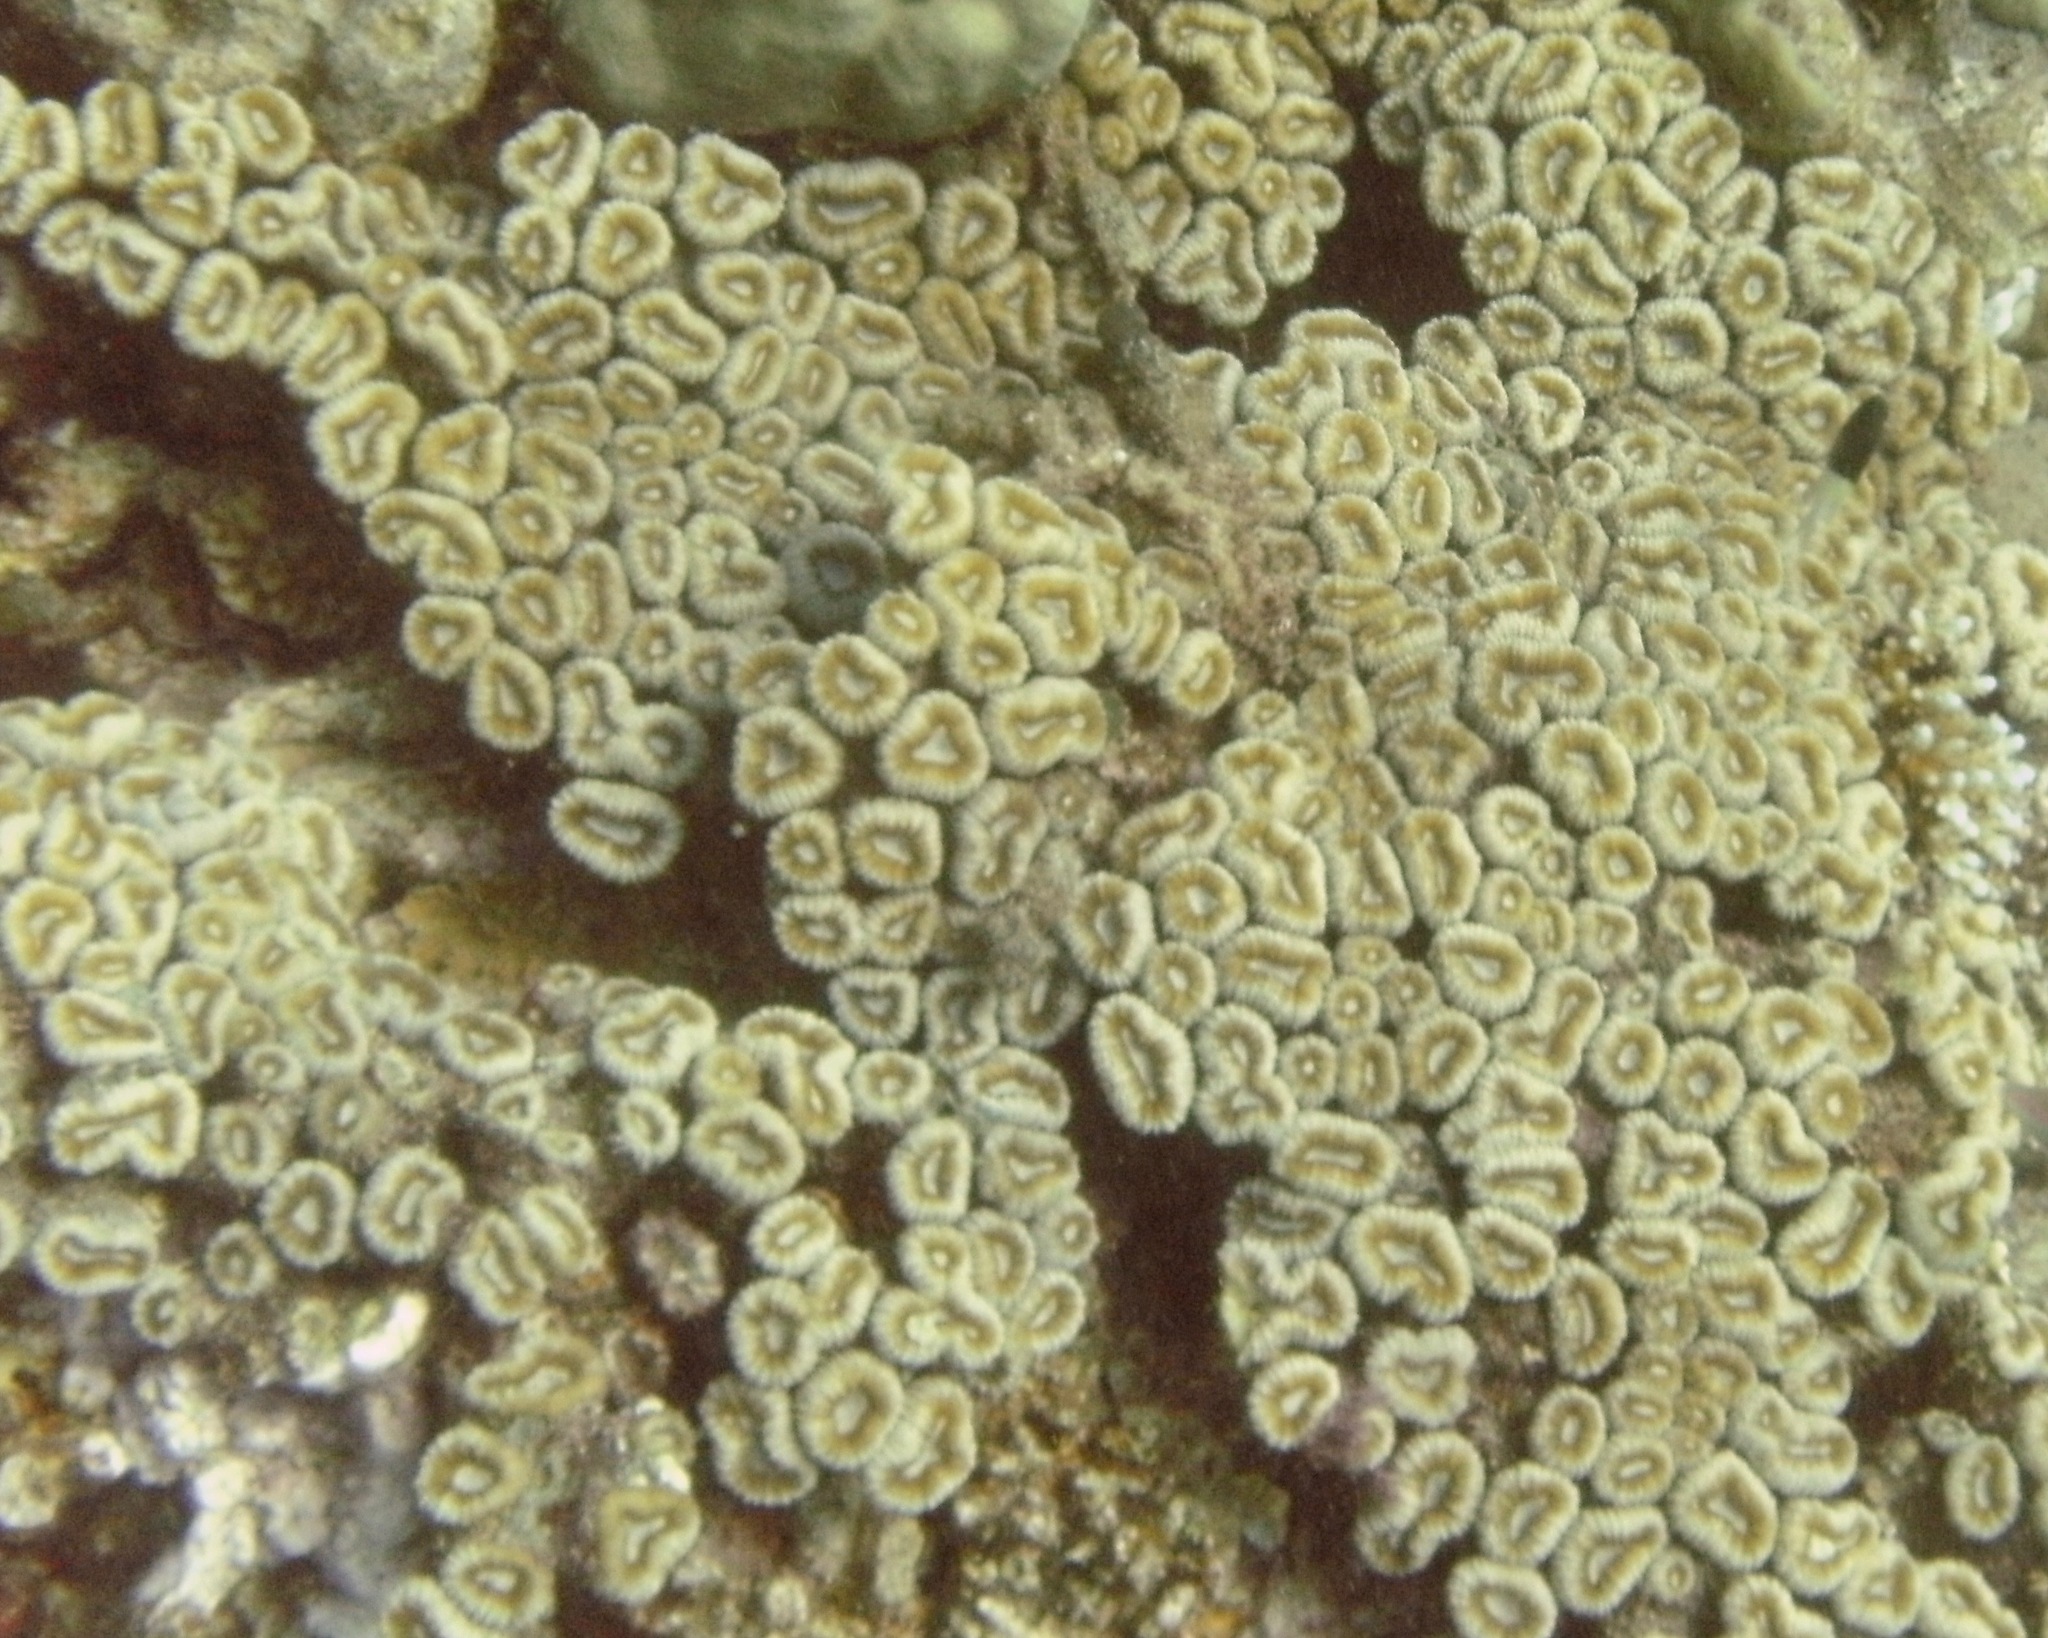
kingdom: Animalia
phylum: Cnidaria
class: Anthozoa
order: Scleractinia
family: Lobophylliidae
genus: Lobophyllia
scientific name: Lobophyllia corymbosa
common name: Lobed cactus coral
